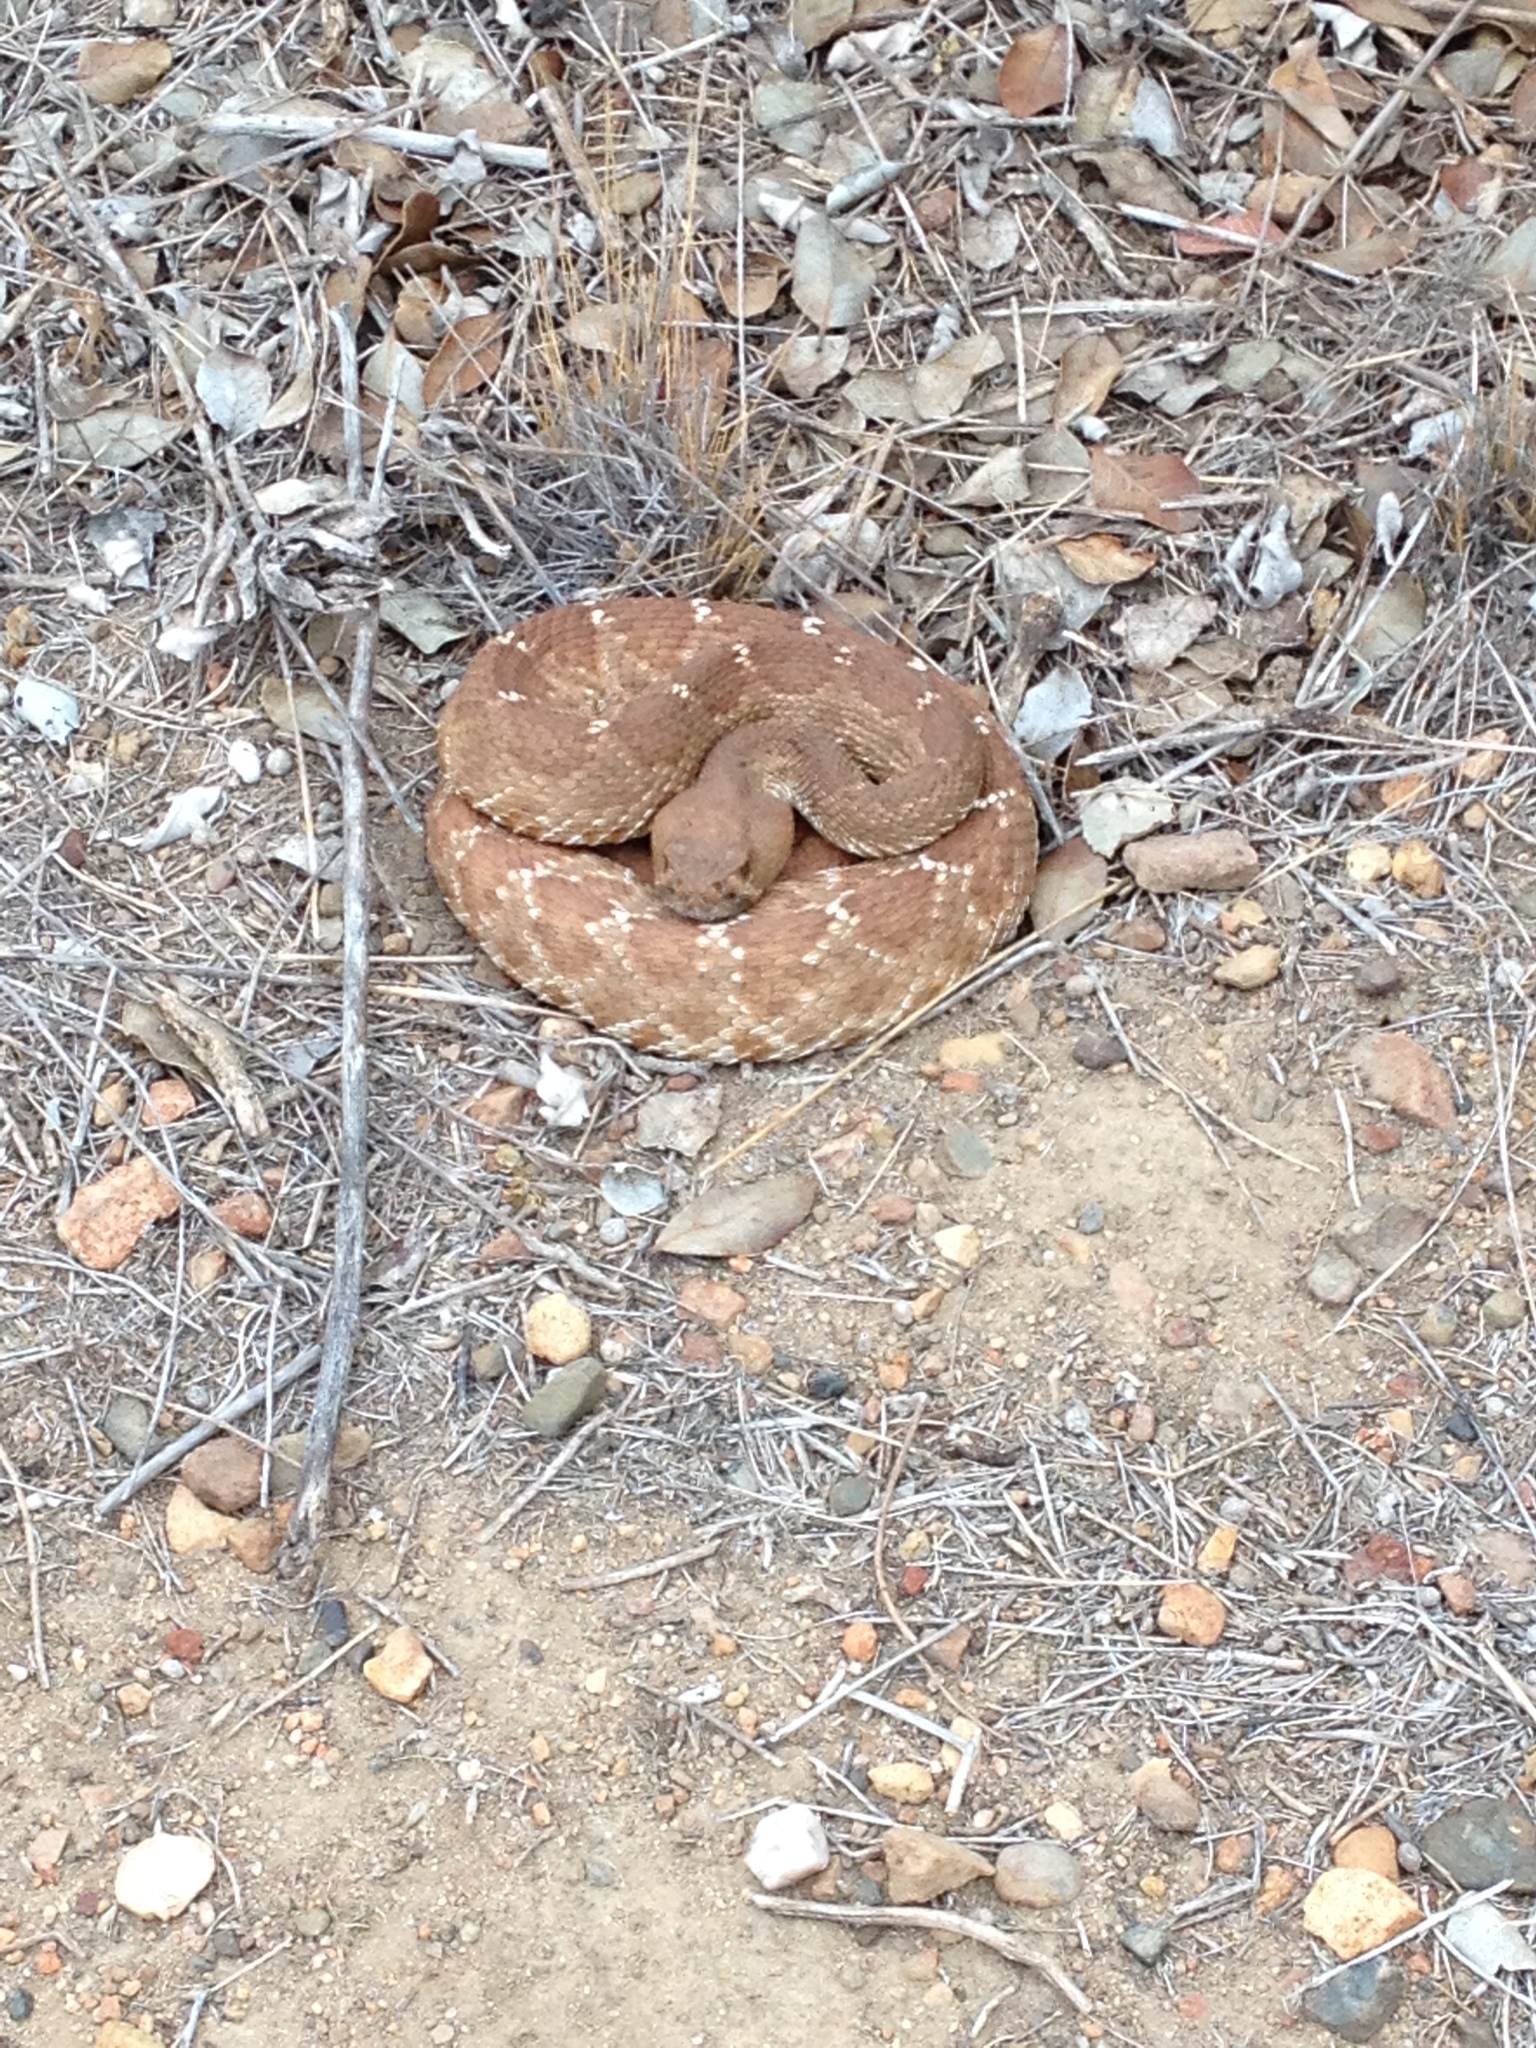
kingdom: Animalia
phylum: Chordata
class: Squamata
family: Viperidae
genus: Crotalus
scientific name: Crotalus ruber
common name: Red diamond rattlesnake
